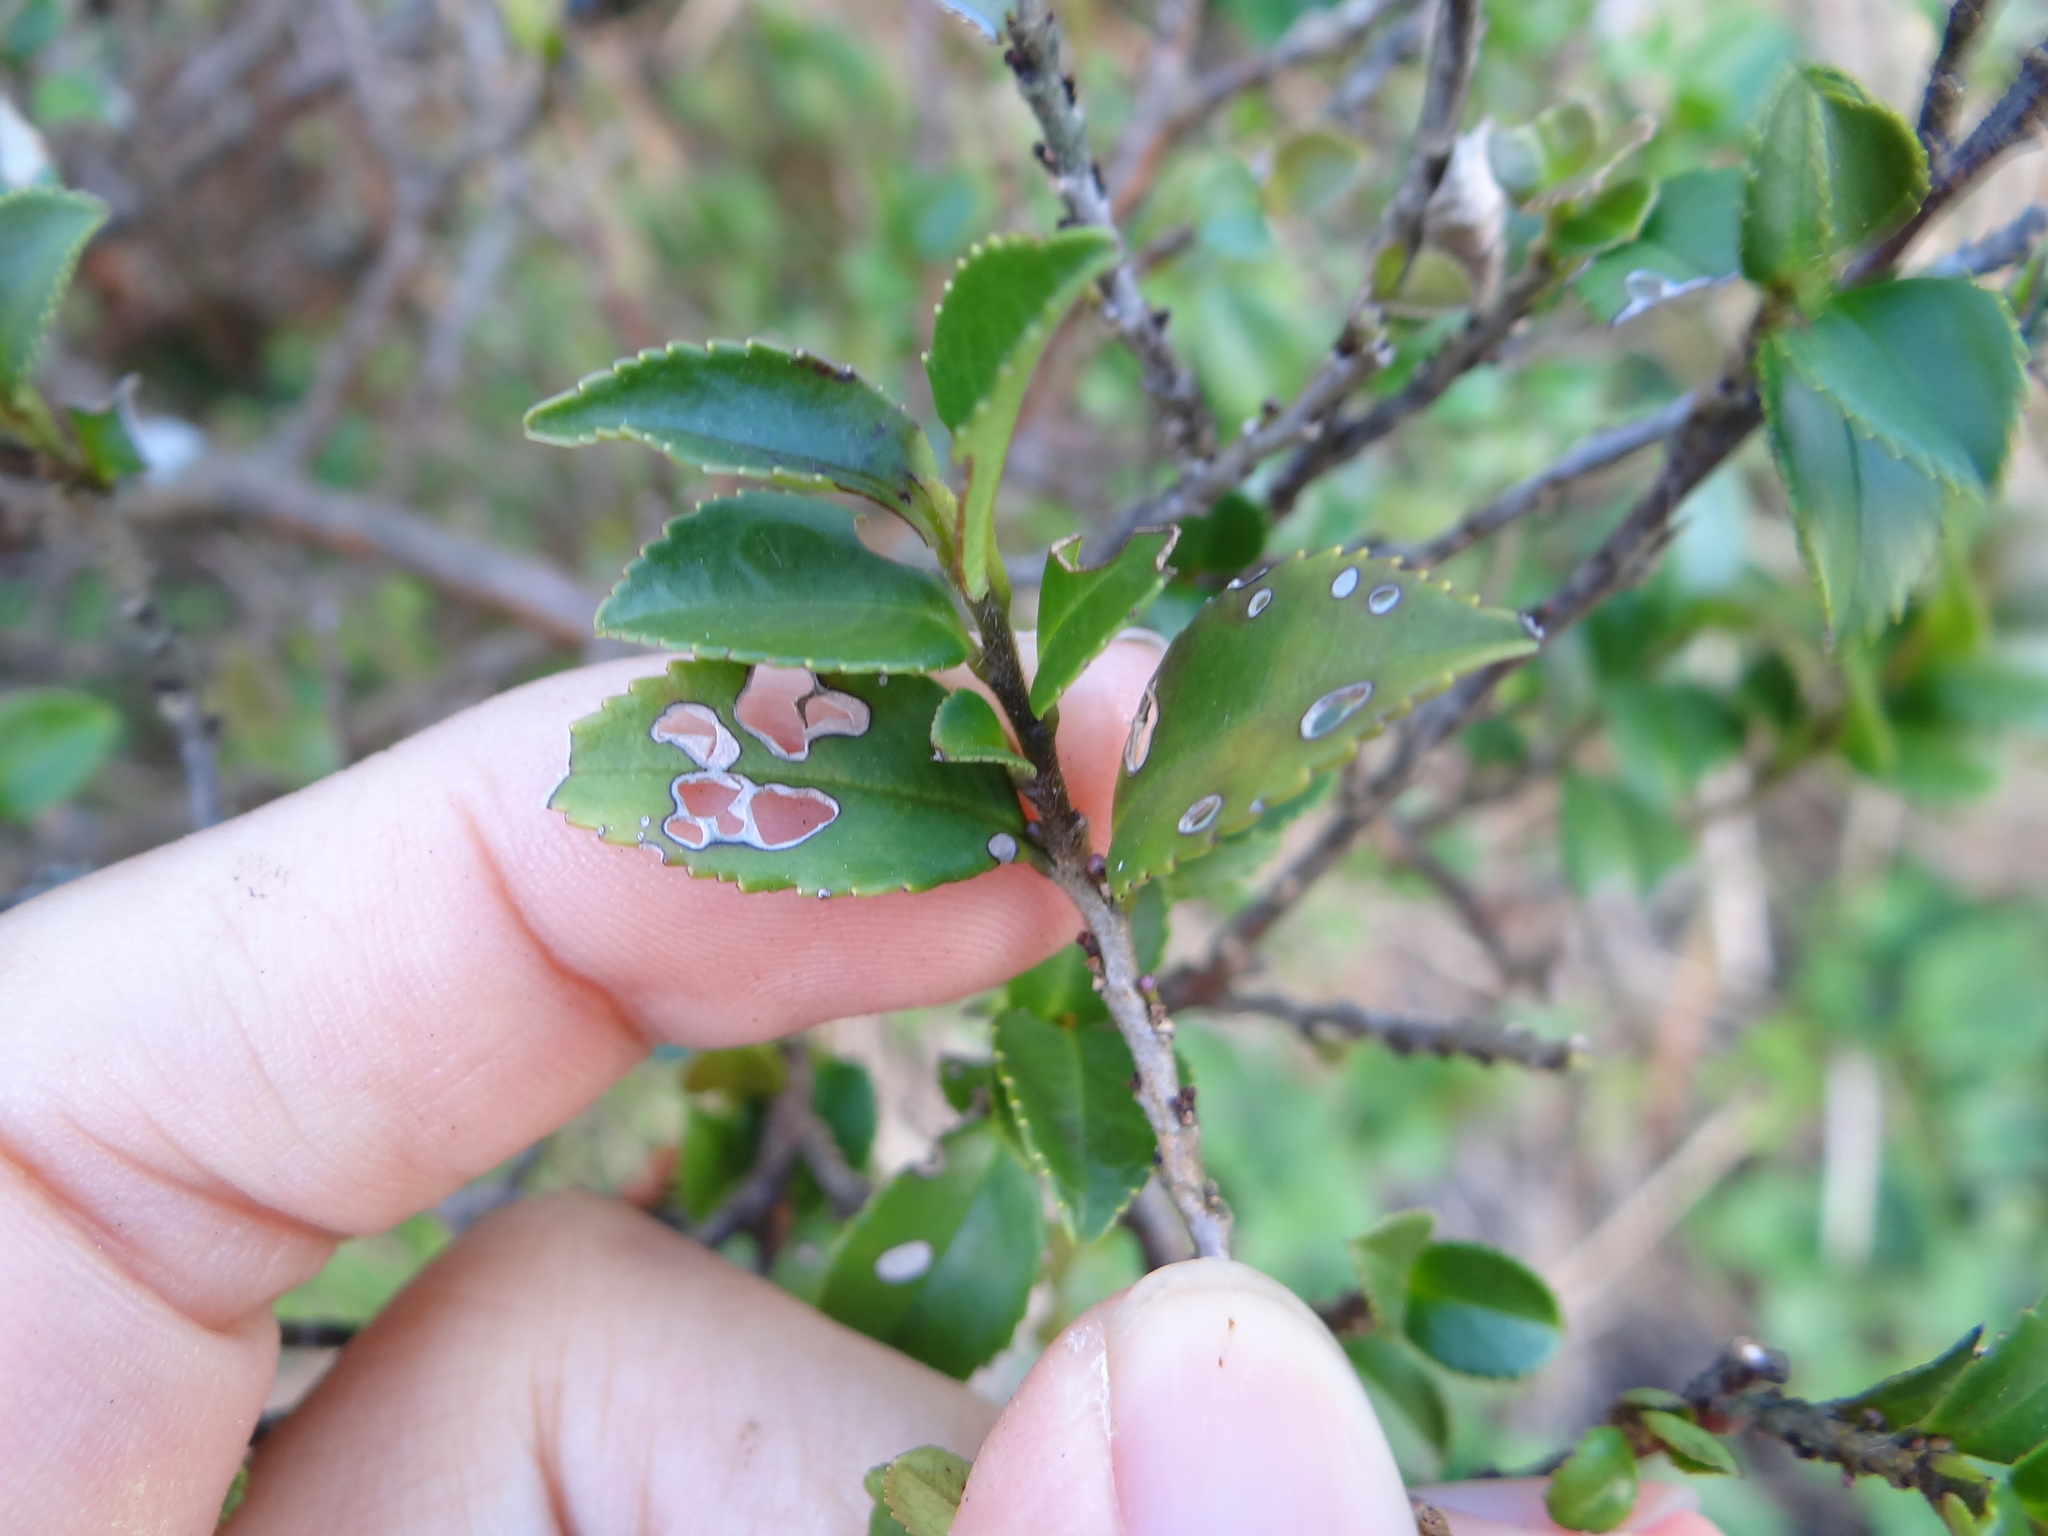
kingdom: Plantae
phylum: Tracheophyta
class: Magnoliopsida
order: Ericales
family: Pentaphylacaceae
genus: Eurya
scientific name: Eurya crenatifolia
